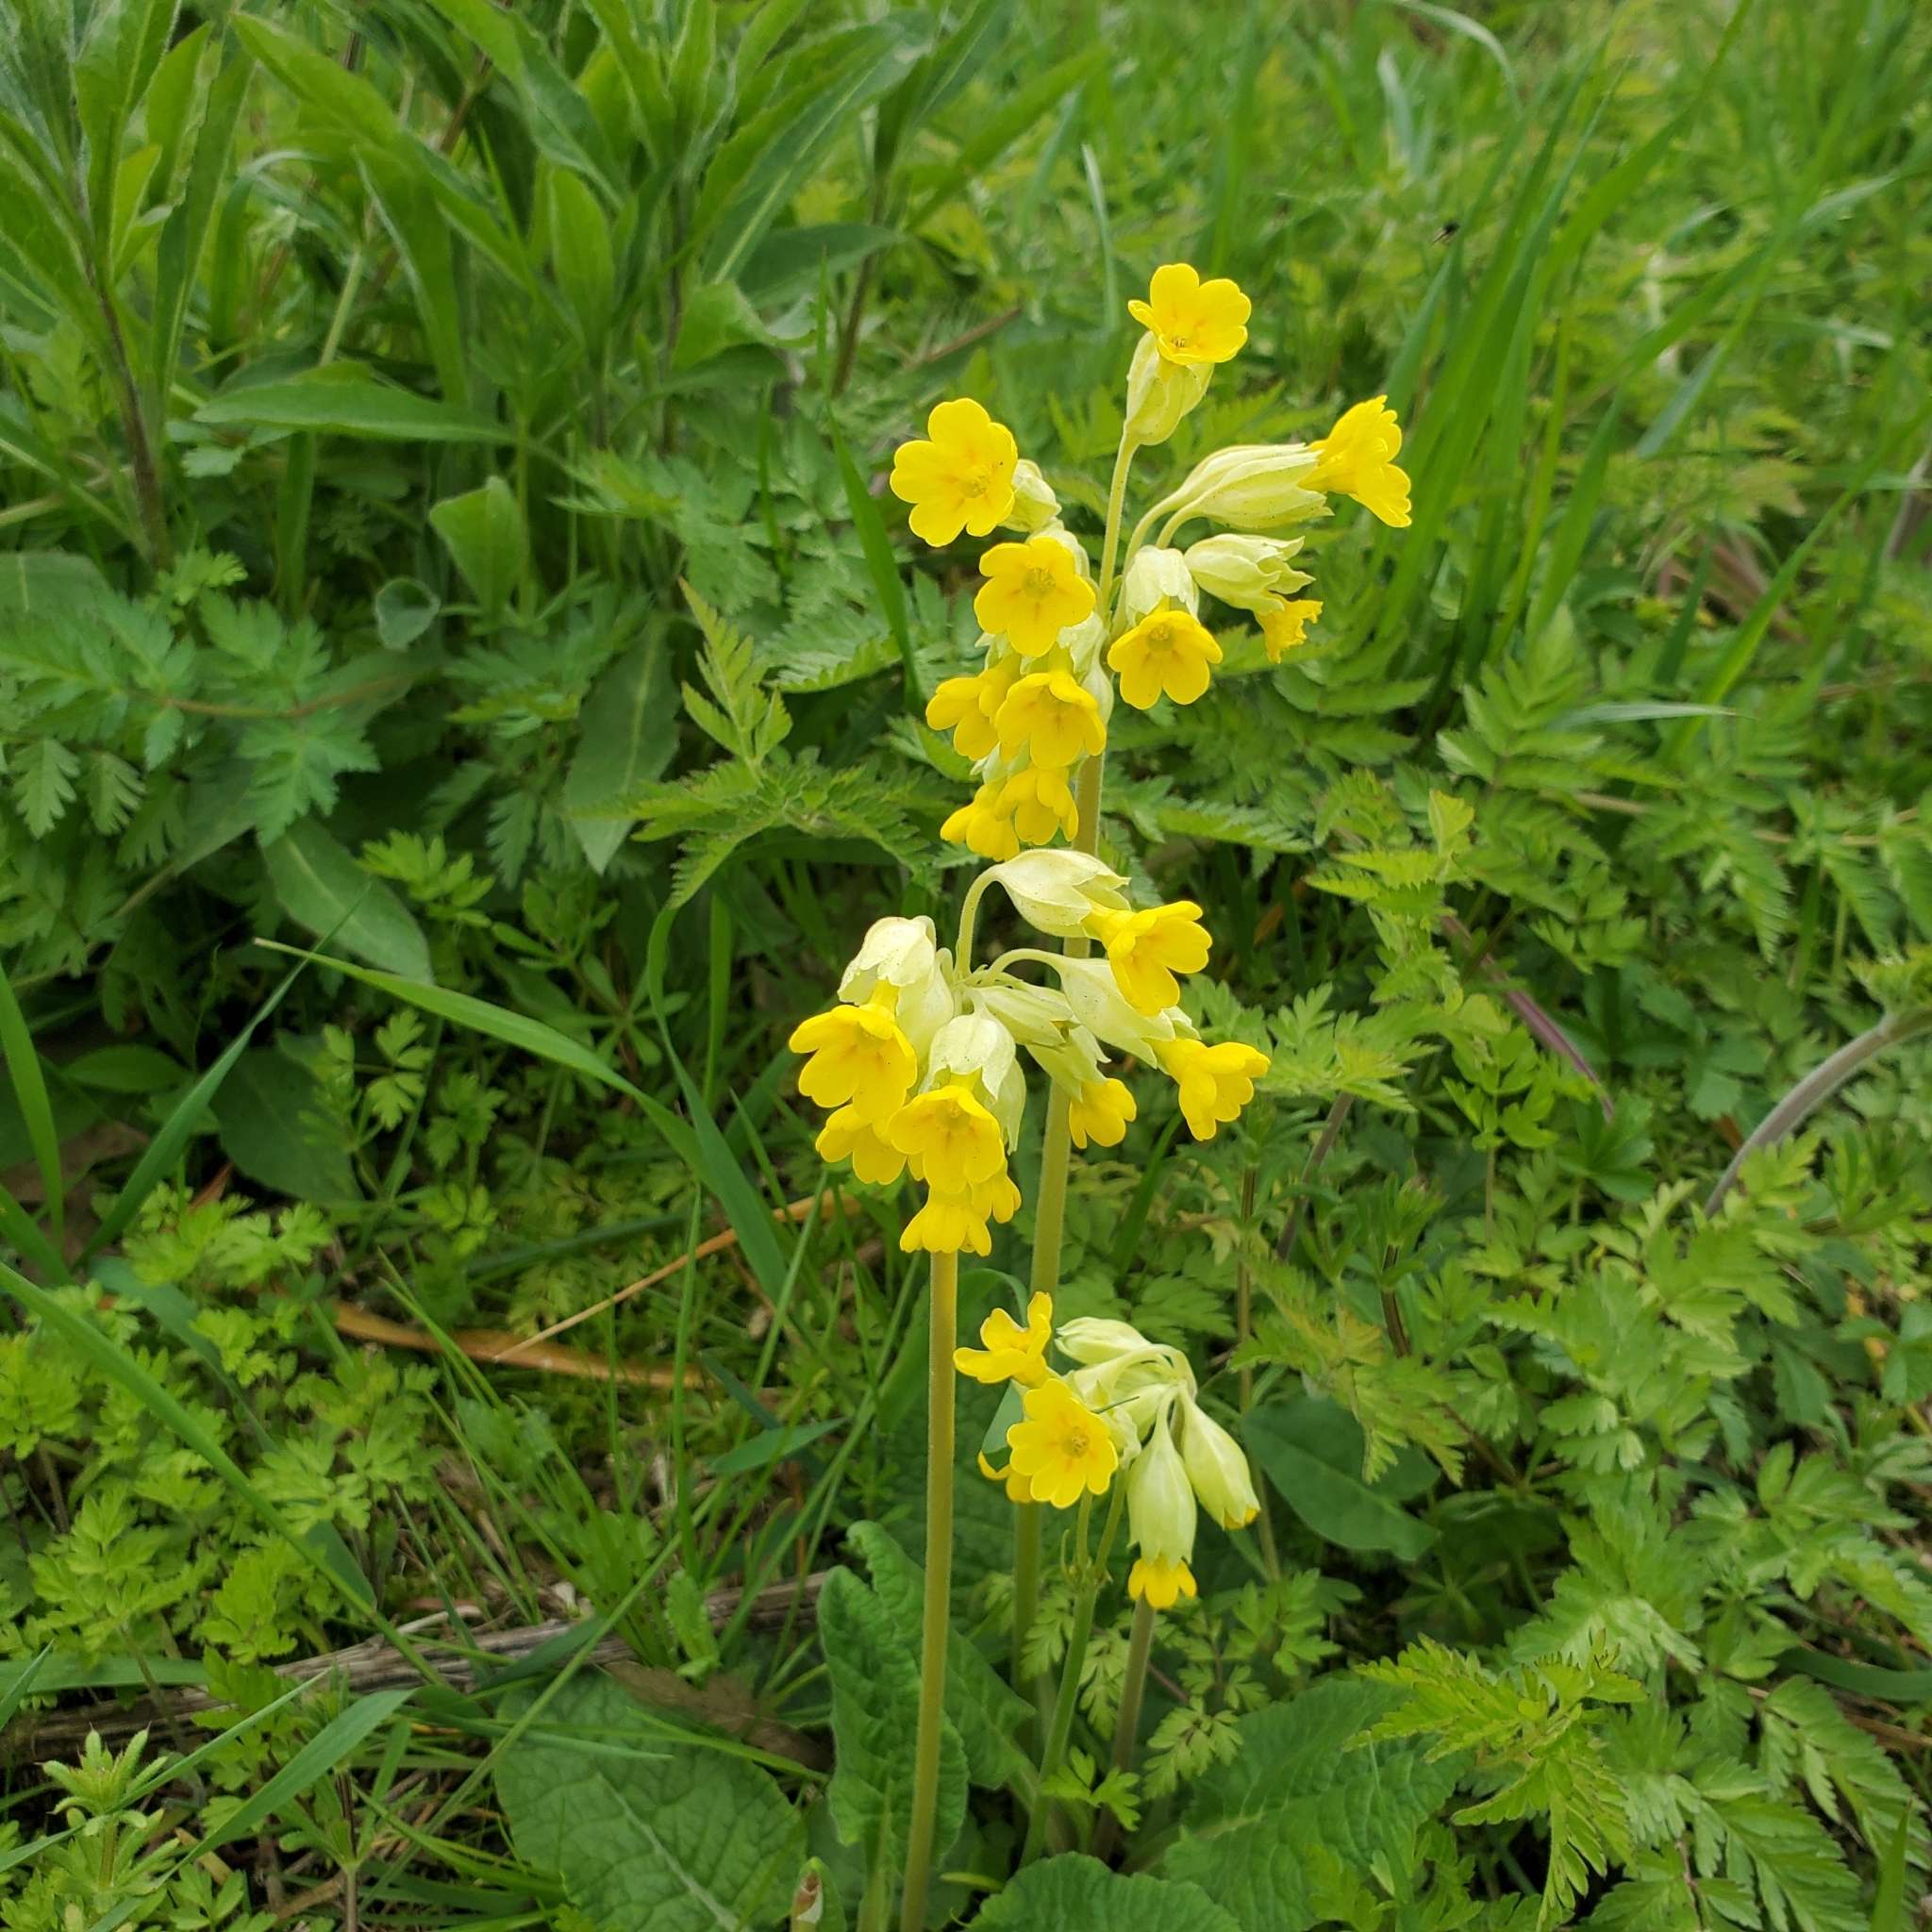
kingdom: Plantae
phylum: Tracheophyta
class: Magnoliopsida
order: Ericales
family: Primulaceae
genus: Primula
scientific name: Primula veris
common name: Cowslip
